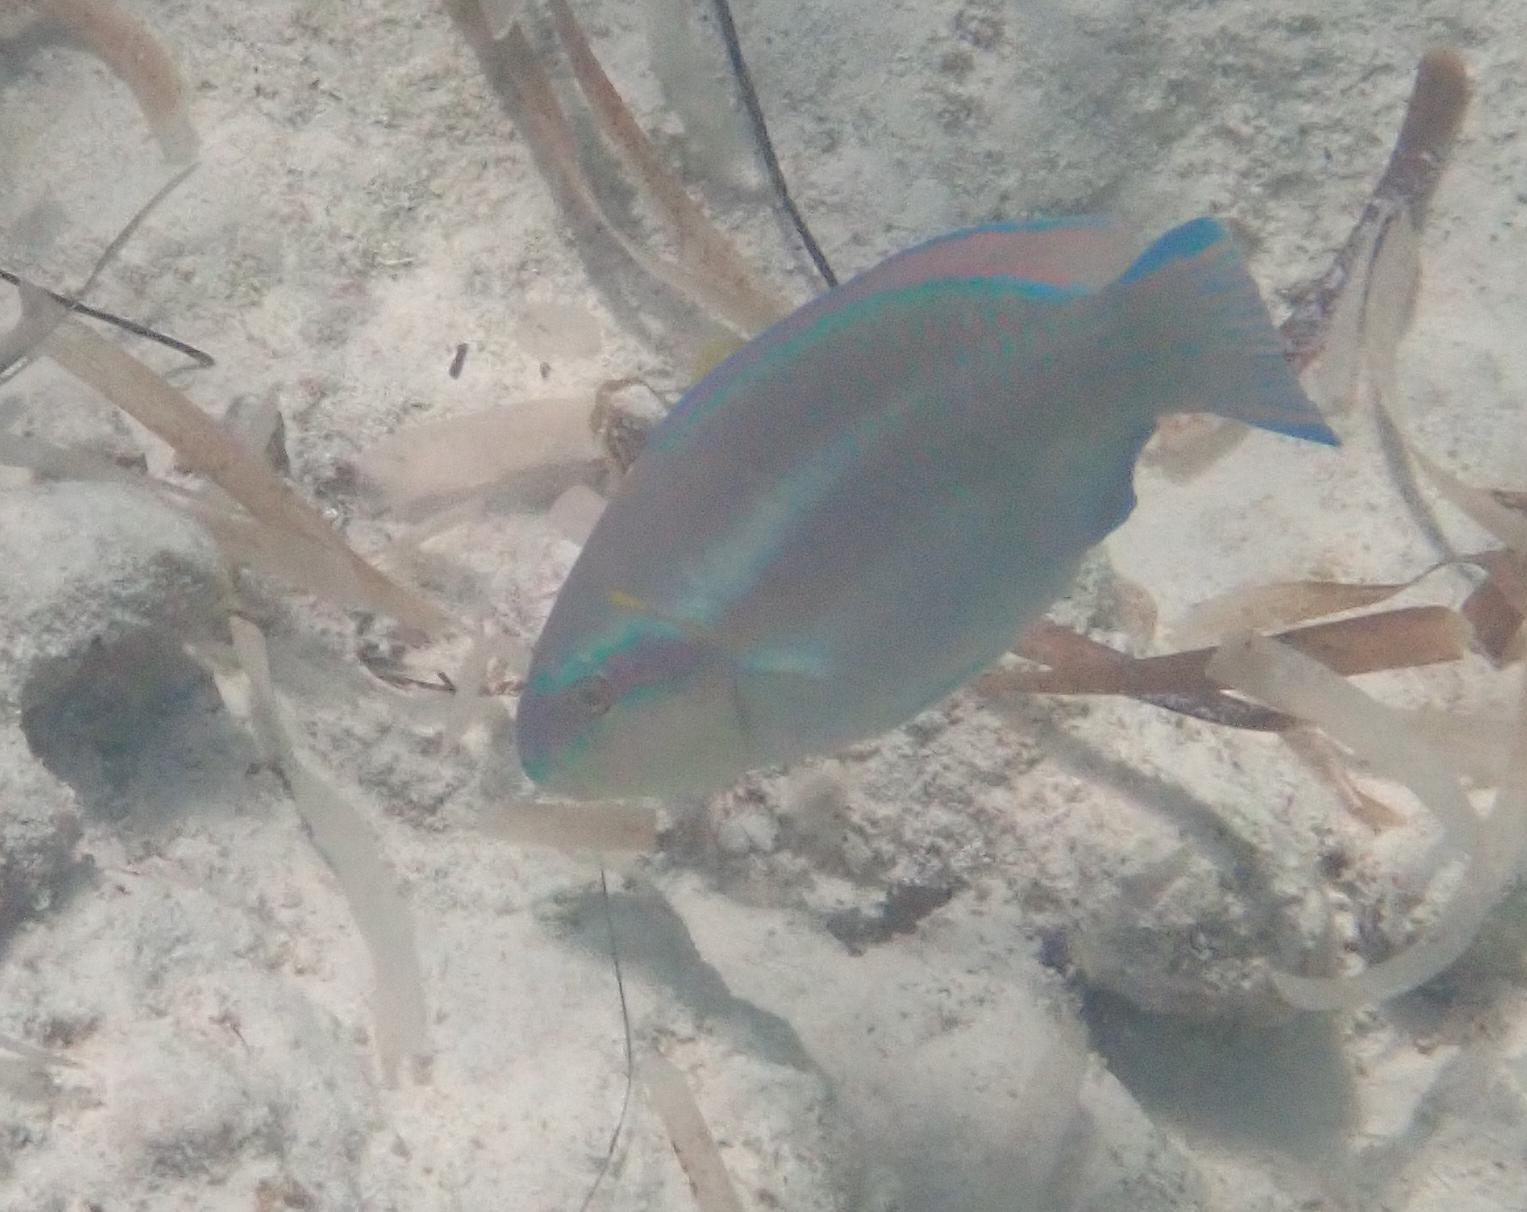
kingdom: Animalia
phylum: Chordata
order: Perciformes
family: Scaridae
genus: Scarus
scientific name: Scarus iseri
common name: Striped parrotfish
